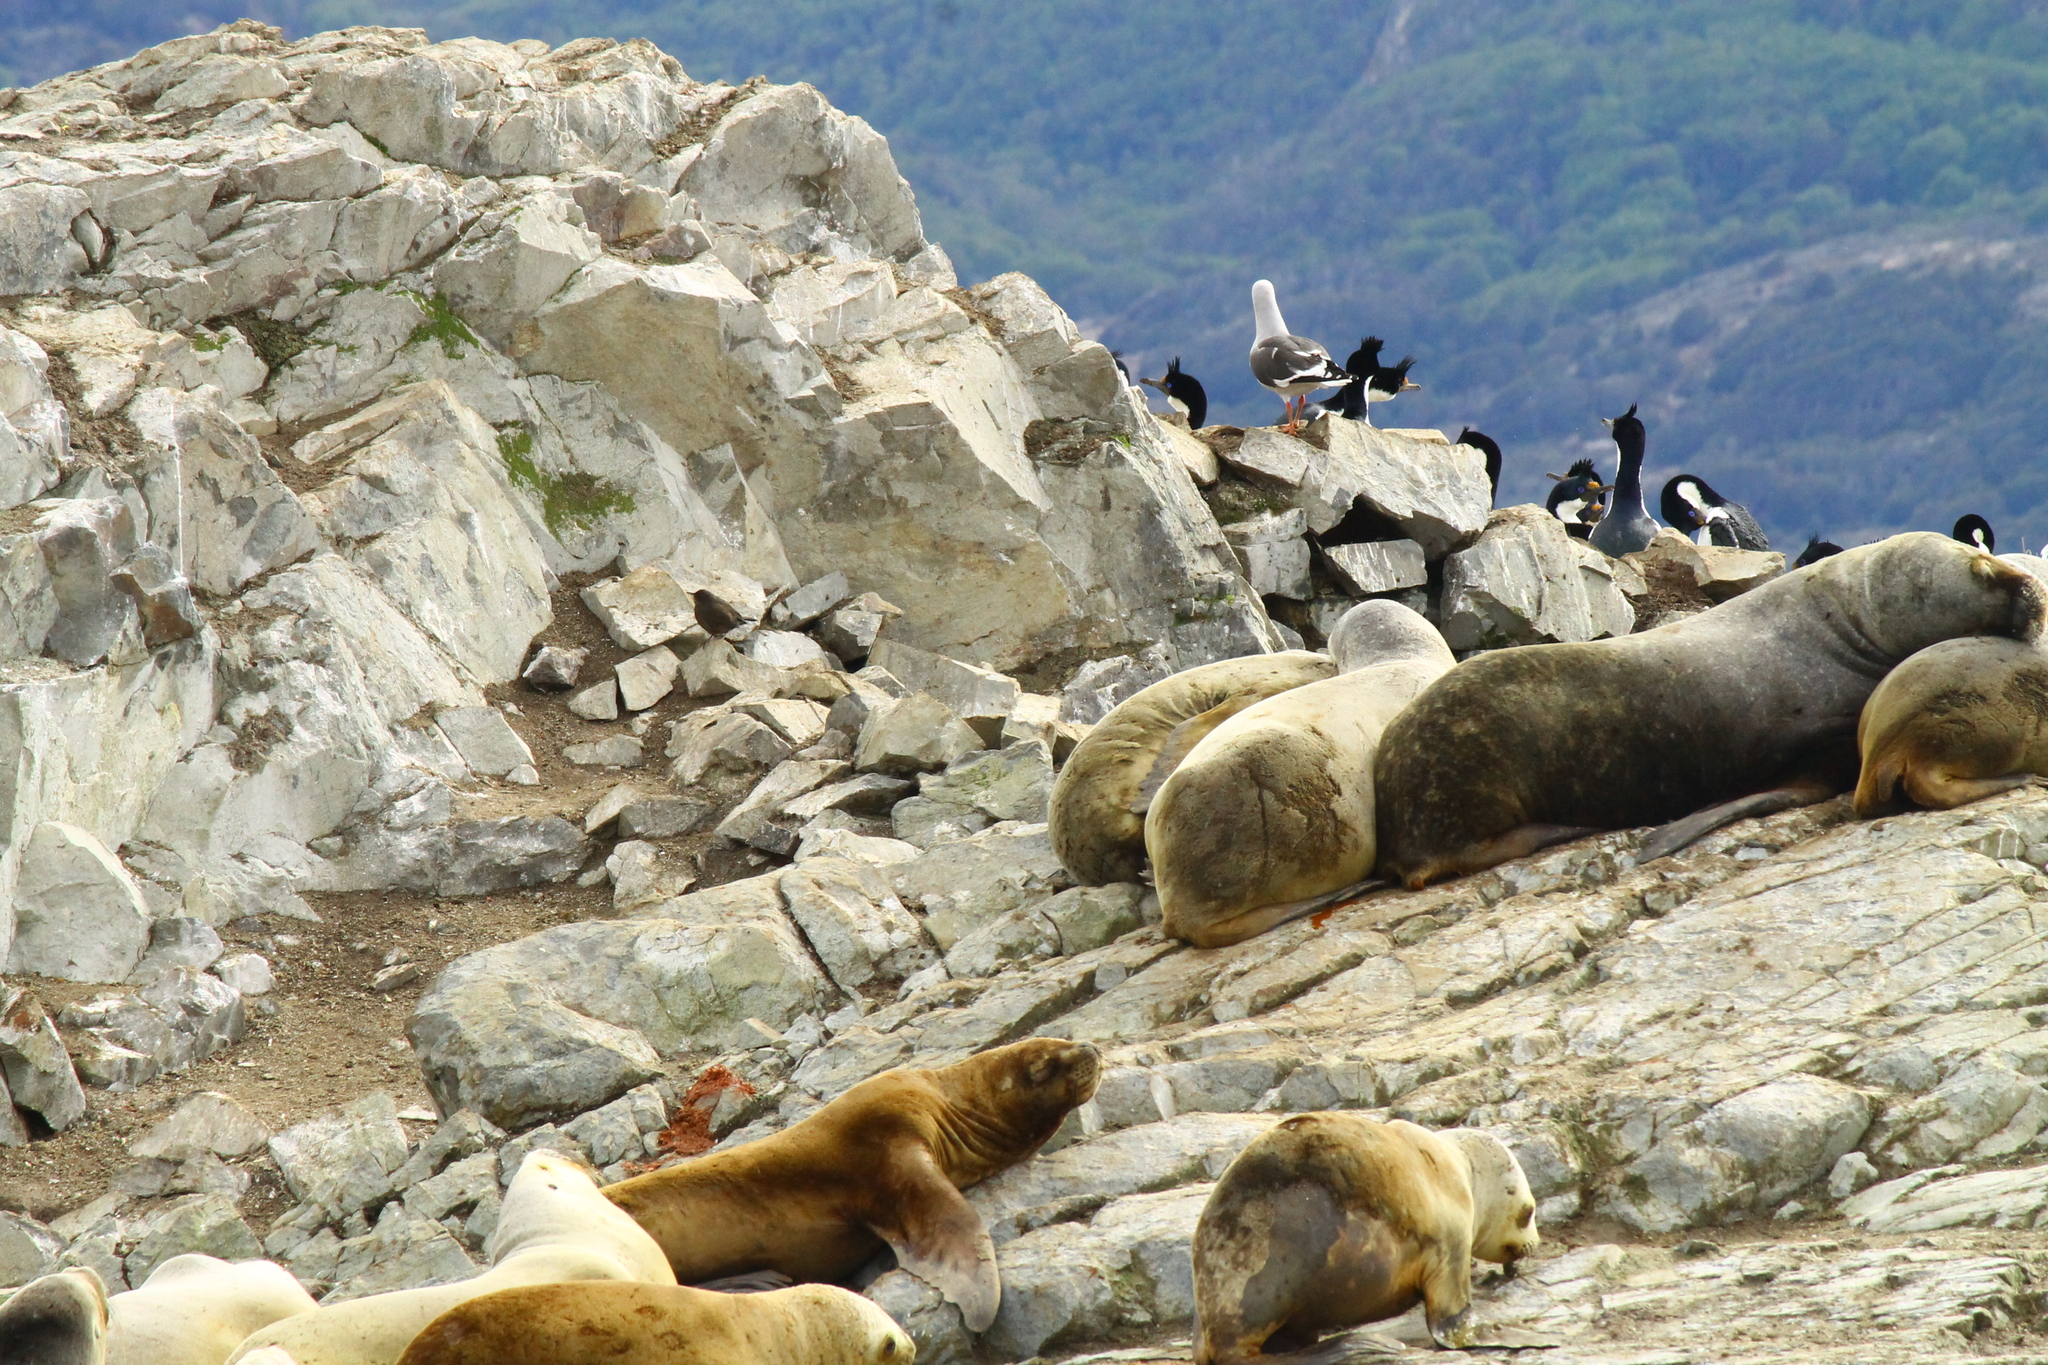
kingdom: Animalia
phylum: Chordata
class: Aves
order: Passeriformes
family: Furnariidae
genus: Cinclodes
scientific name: Cinclodes antarcticus
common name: Blackish cinclodes
